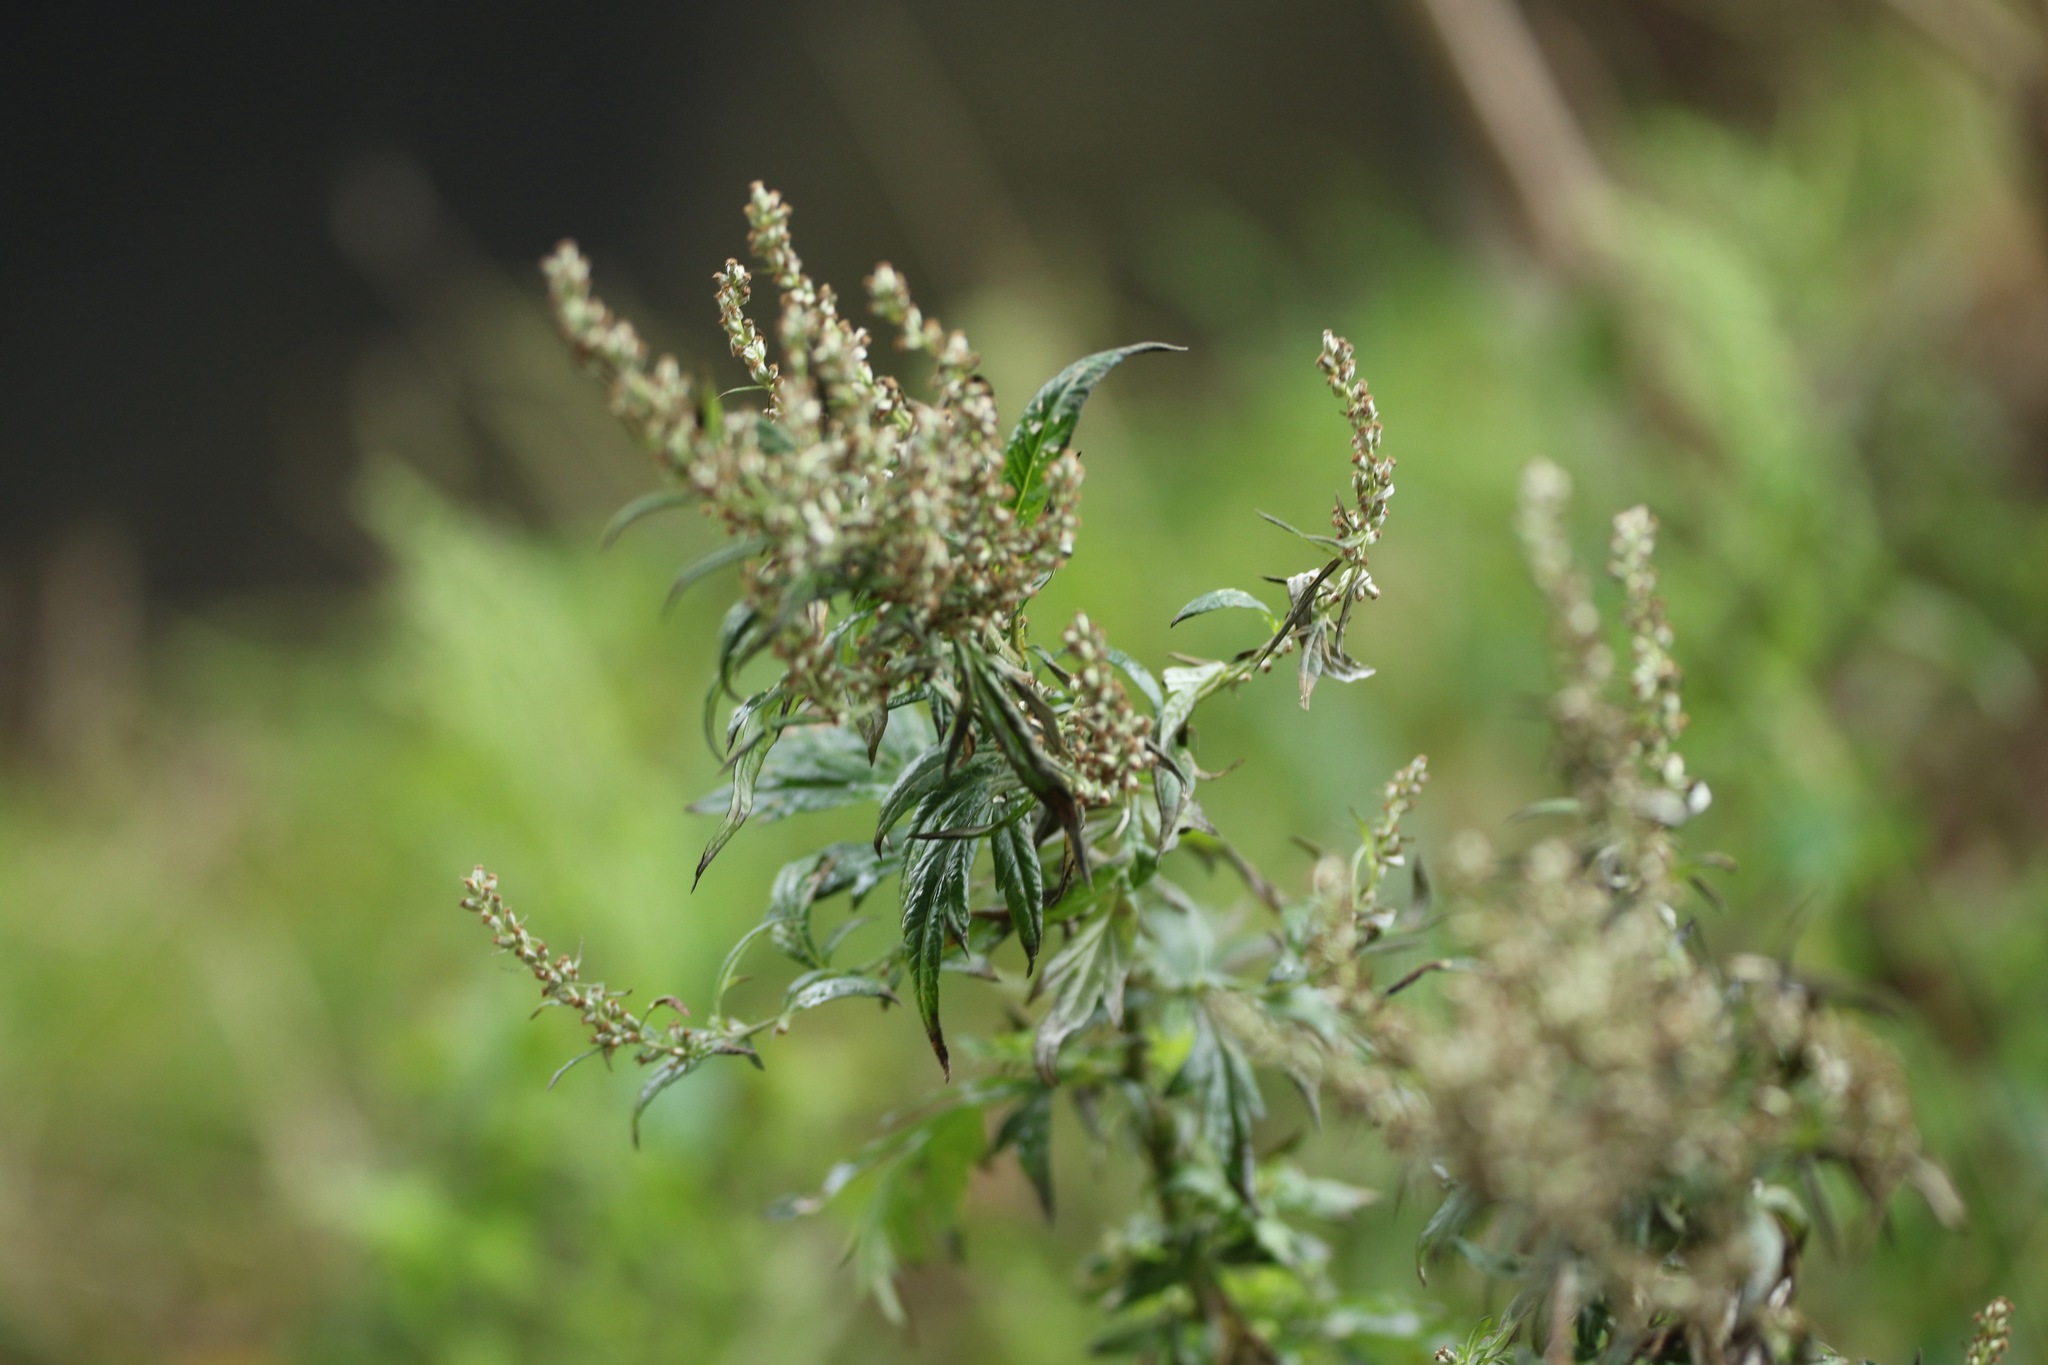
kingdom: Plantae
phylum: Tracheophyta
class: Magnoliopsida
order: Asterales
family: Asteraceae
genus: Artemisia
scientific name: Artemisia vulgaris
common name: Mugwort
